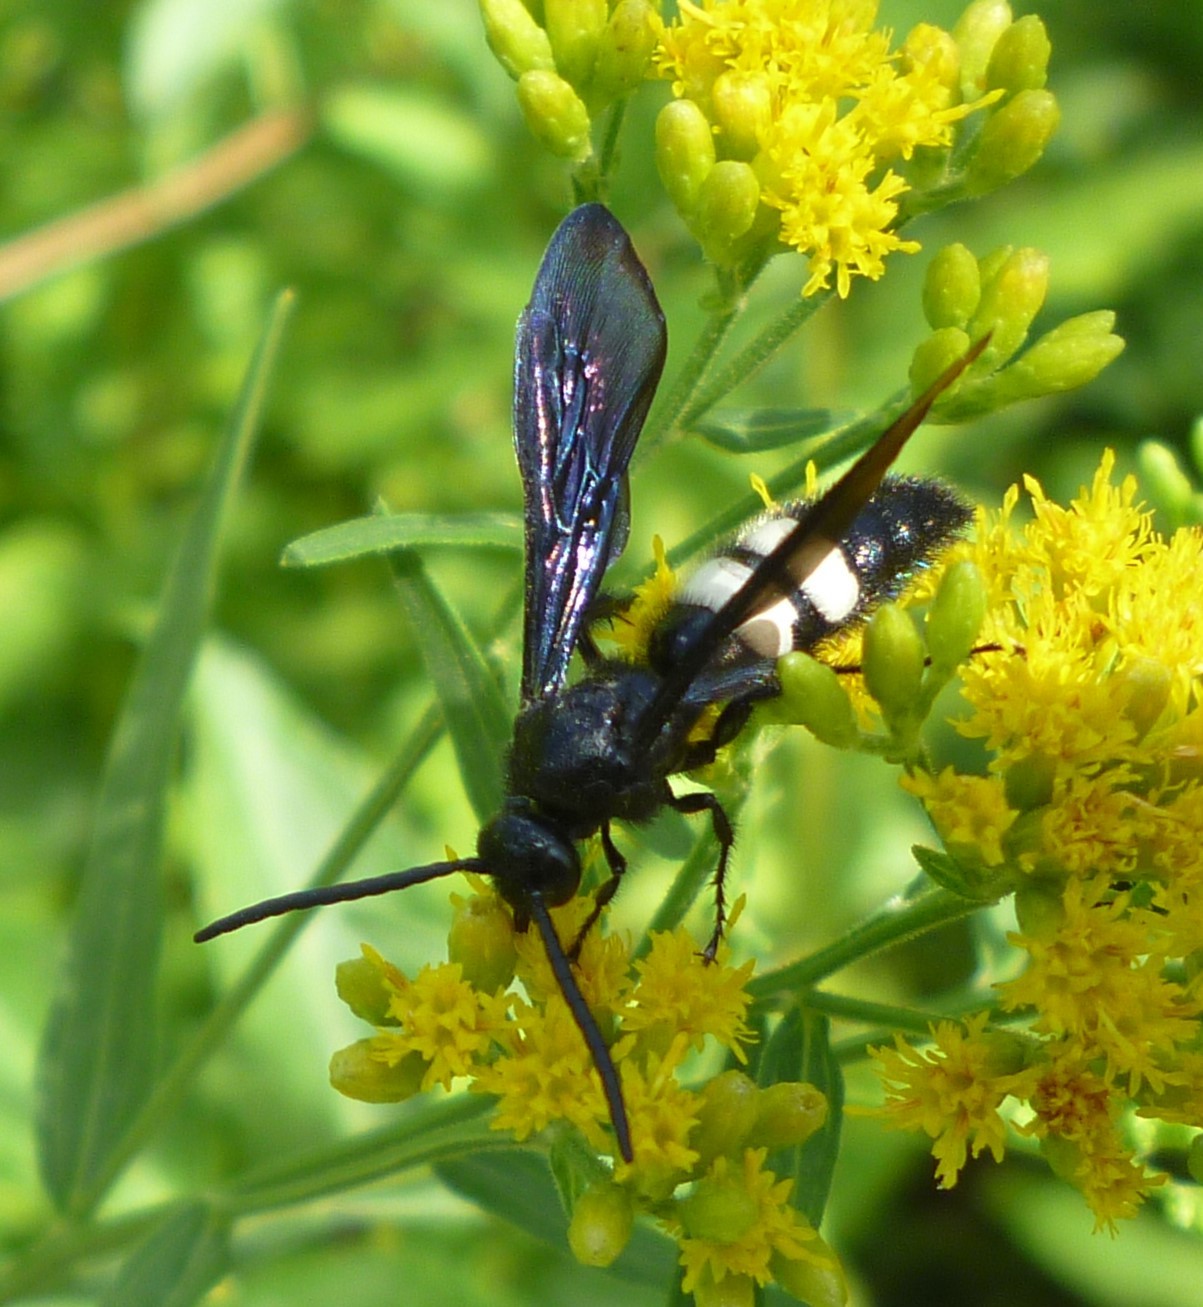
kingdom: Animalia
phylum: Arthropoda
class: Insecta
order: Hymenoptera
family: Scoliidae
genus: Scolia
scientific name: Scolia bicincta
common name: Double-banded scoliid wasp
